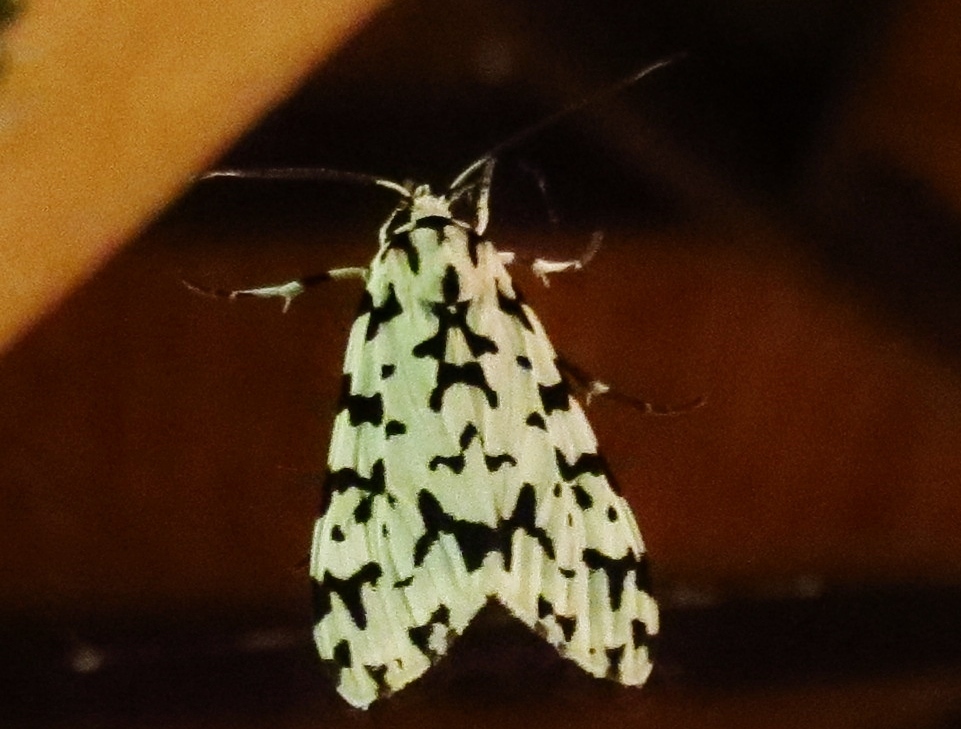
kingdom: Animalia
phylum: Arthropoda
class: Insecta
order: Lepidoptera
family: Erebidae
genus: Eucereon
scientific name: Eucereon tigrata
